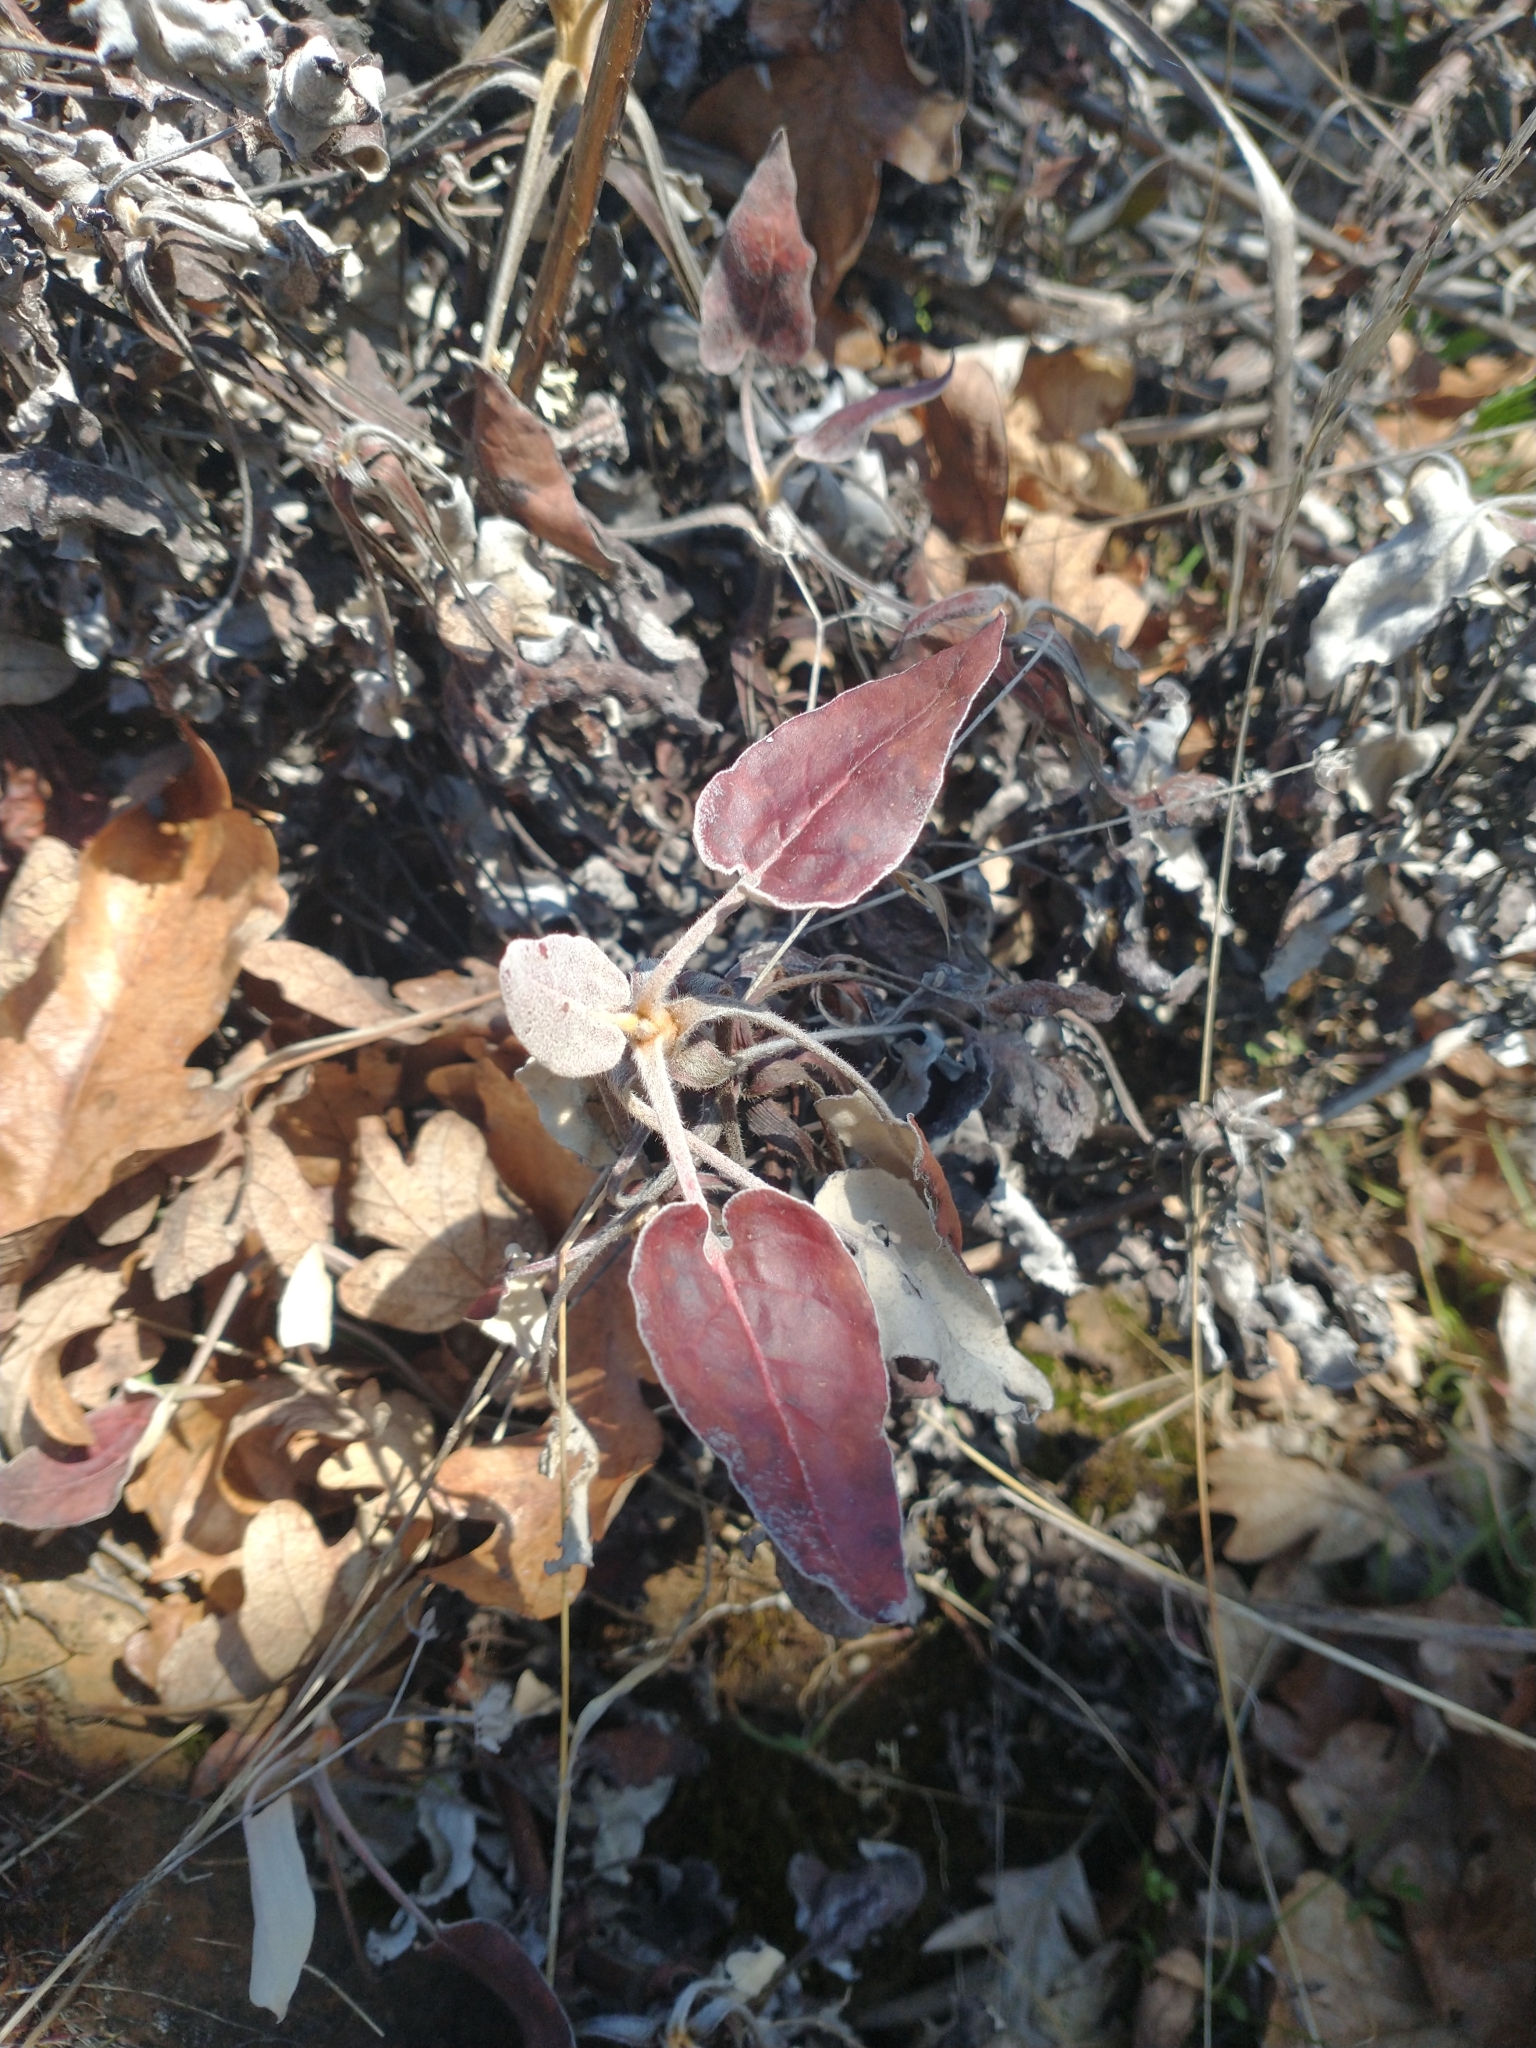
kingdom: Plantae
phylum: Tracheophyta
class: Magnoliopsida
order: Caryophyllales
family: Polygonaceae
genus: Eriogonum
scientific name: Eriogonum compositum
